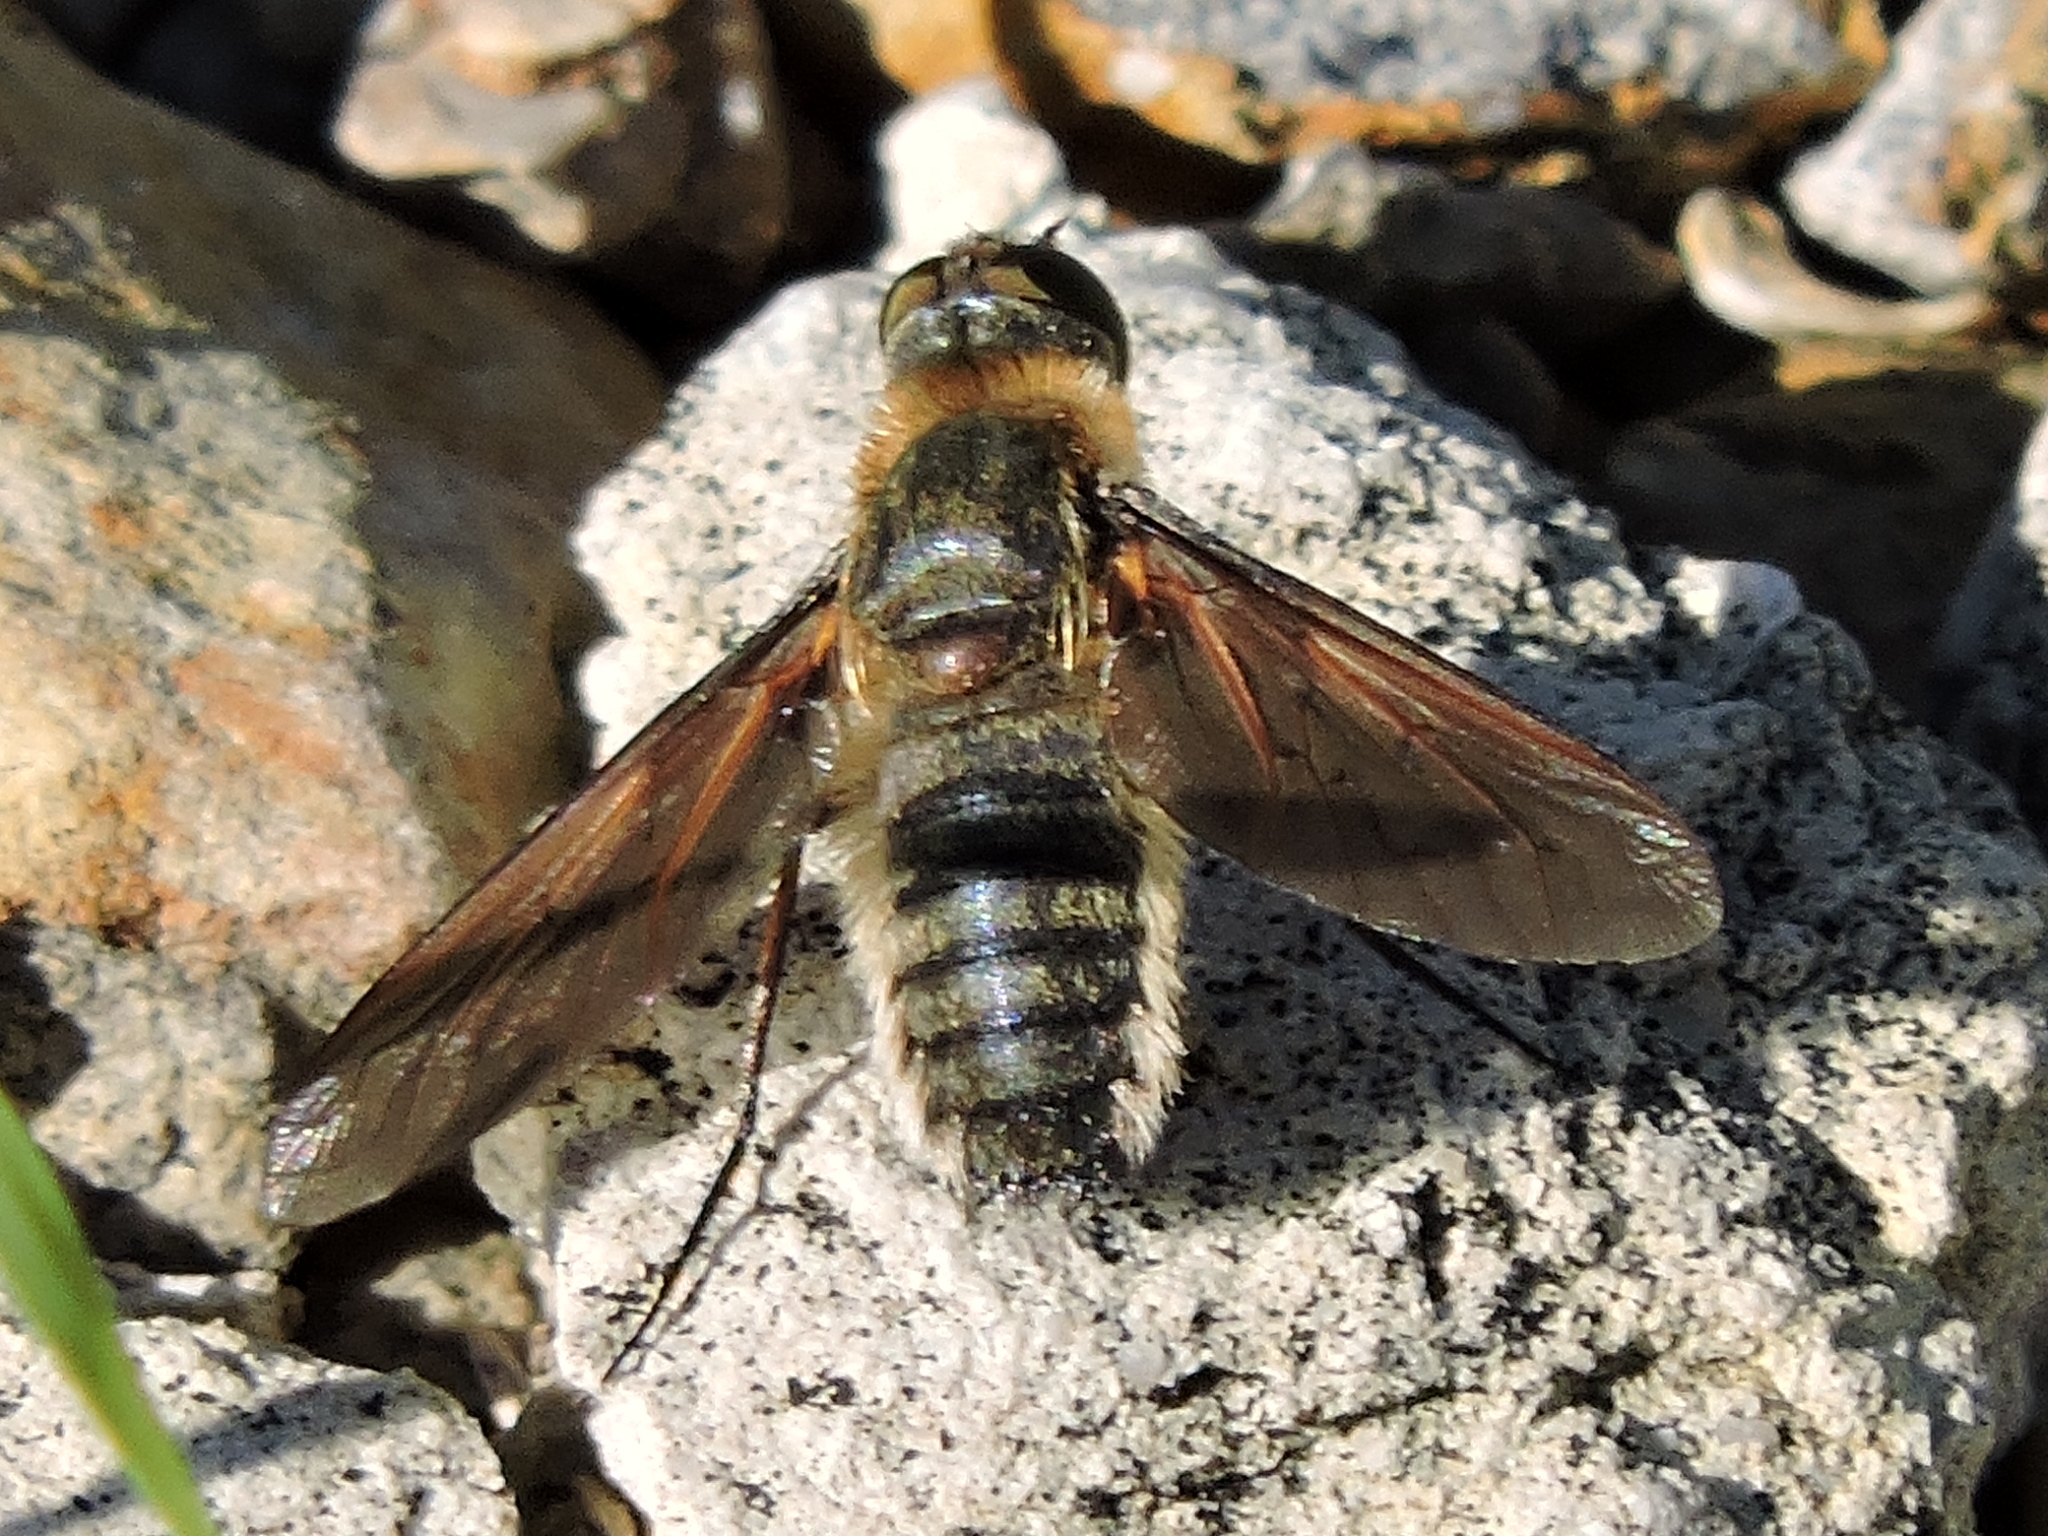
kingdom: Animalia
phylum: Arthropoda
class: Insecta
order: Diptera
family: Bombyliidae
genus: Poecilanthrax
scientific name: Poecilanthrax lucifer
